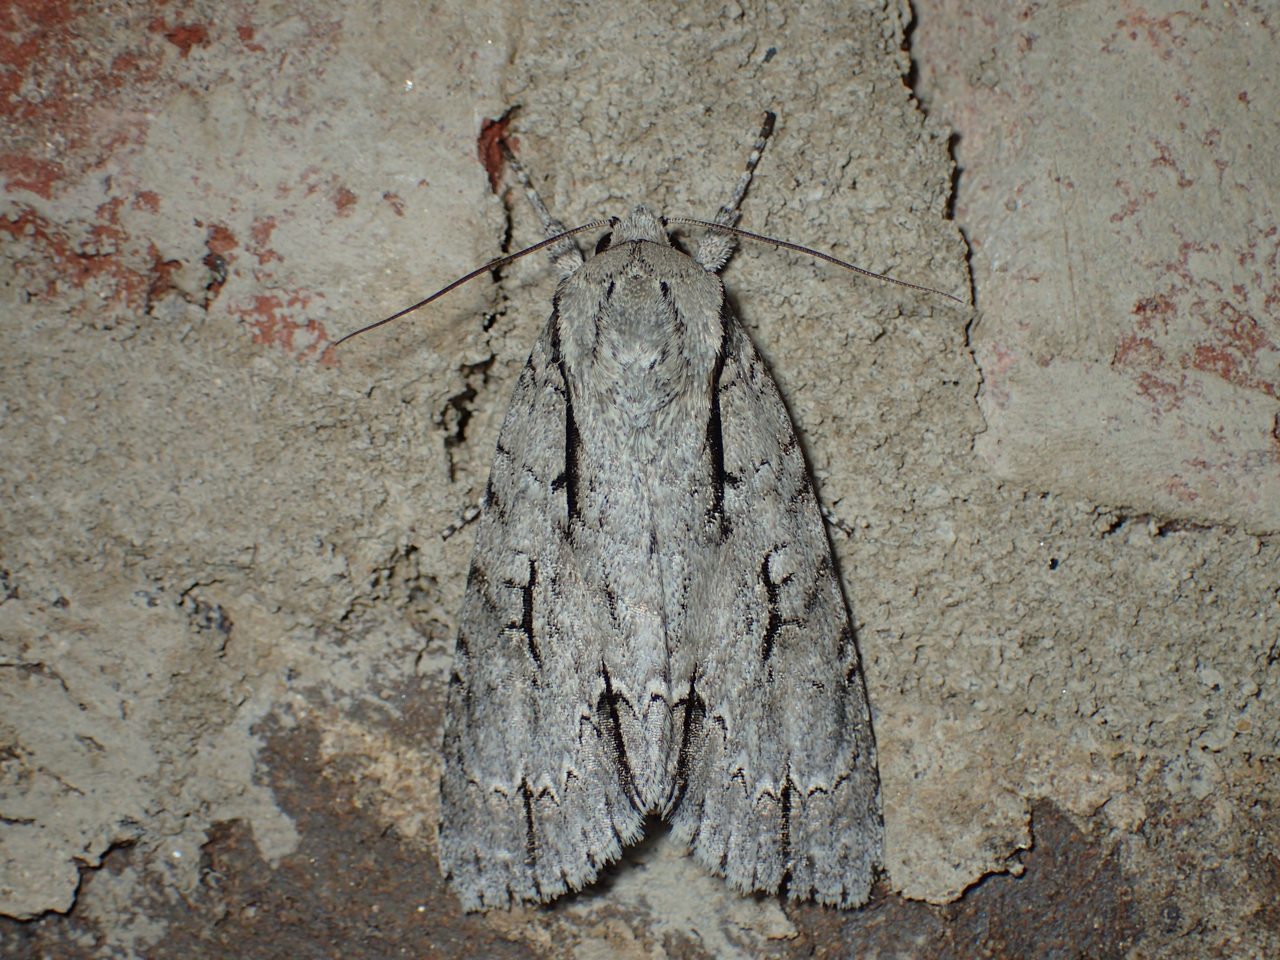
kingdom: Animalia
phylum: Arthropoda
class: Insecta
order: Lepidoptera
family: Noctuidae
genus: Acronicta
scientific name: Acronicta lobeliae
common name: Greater oak dagger
